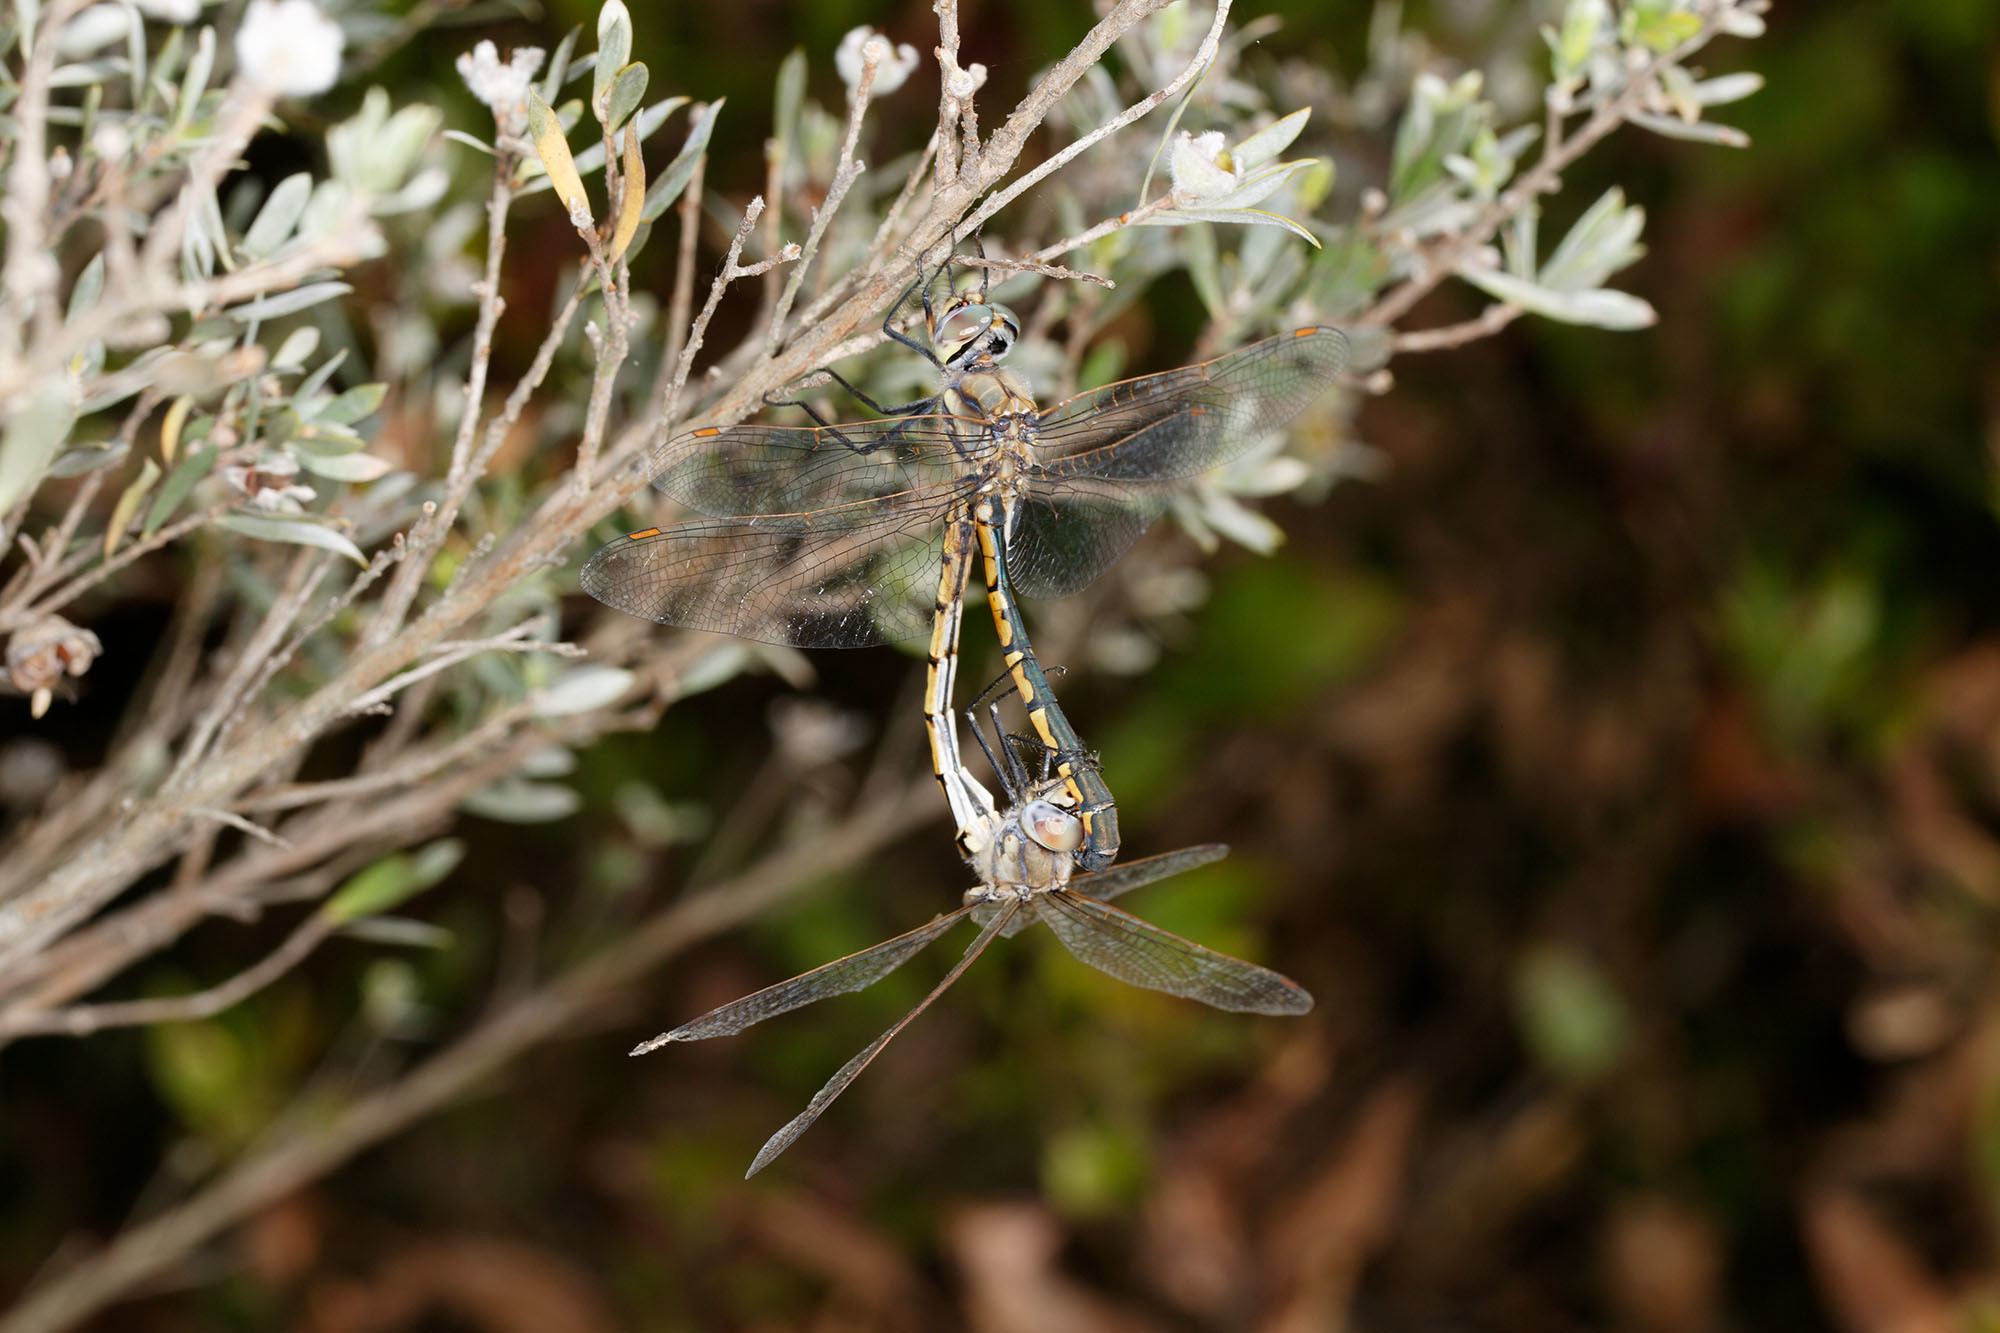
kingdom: Animalia
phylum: Arthropoda
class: Insecta
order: Odonata
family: Corduliidae
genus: Hemicordulia
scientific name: Hemicordulia tau
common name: Tau emerald
